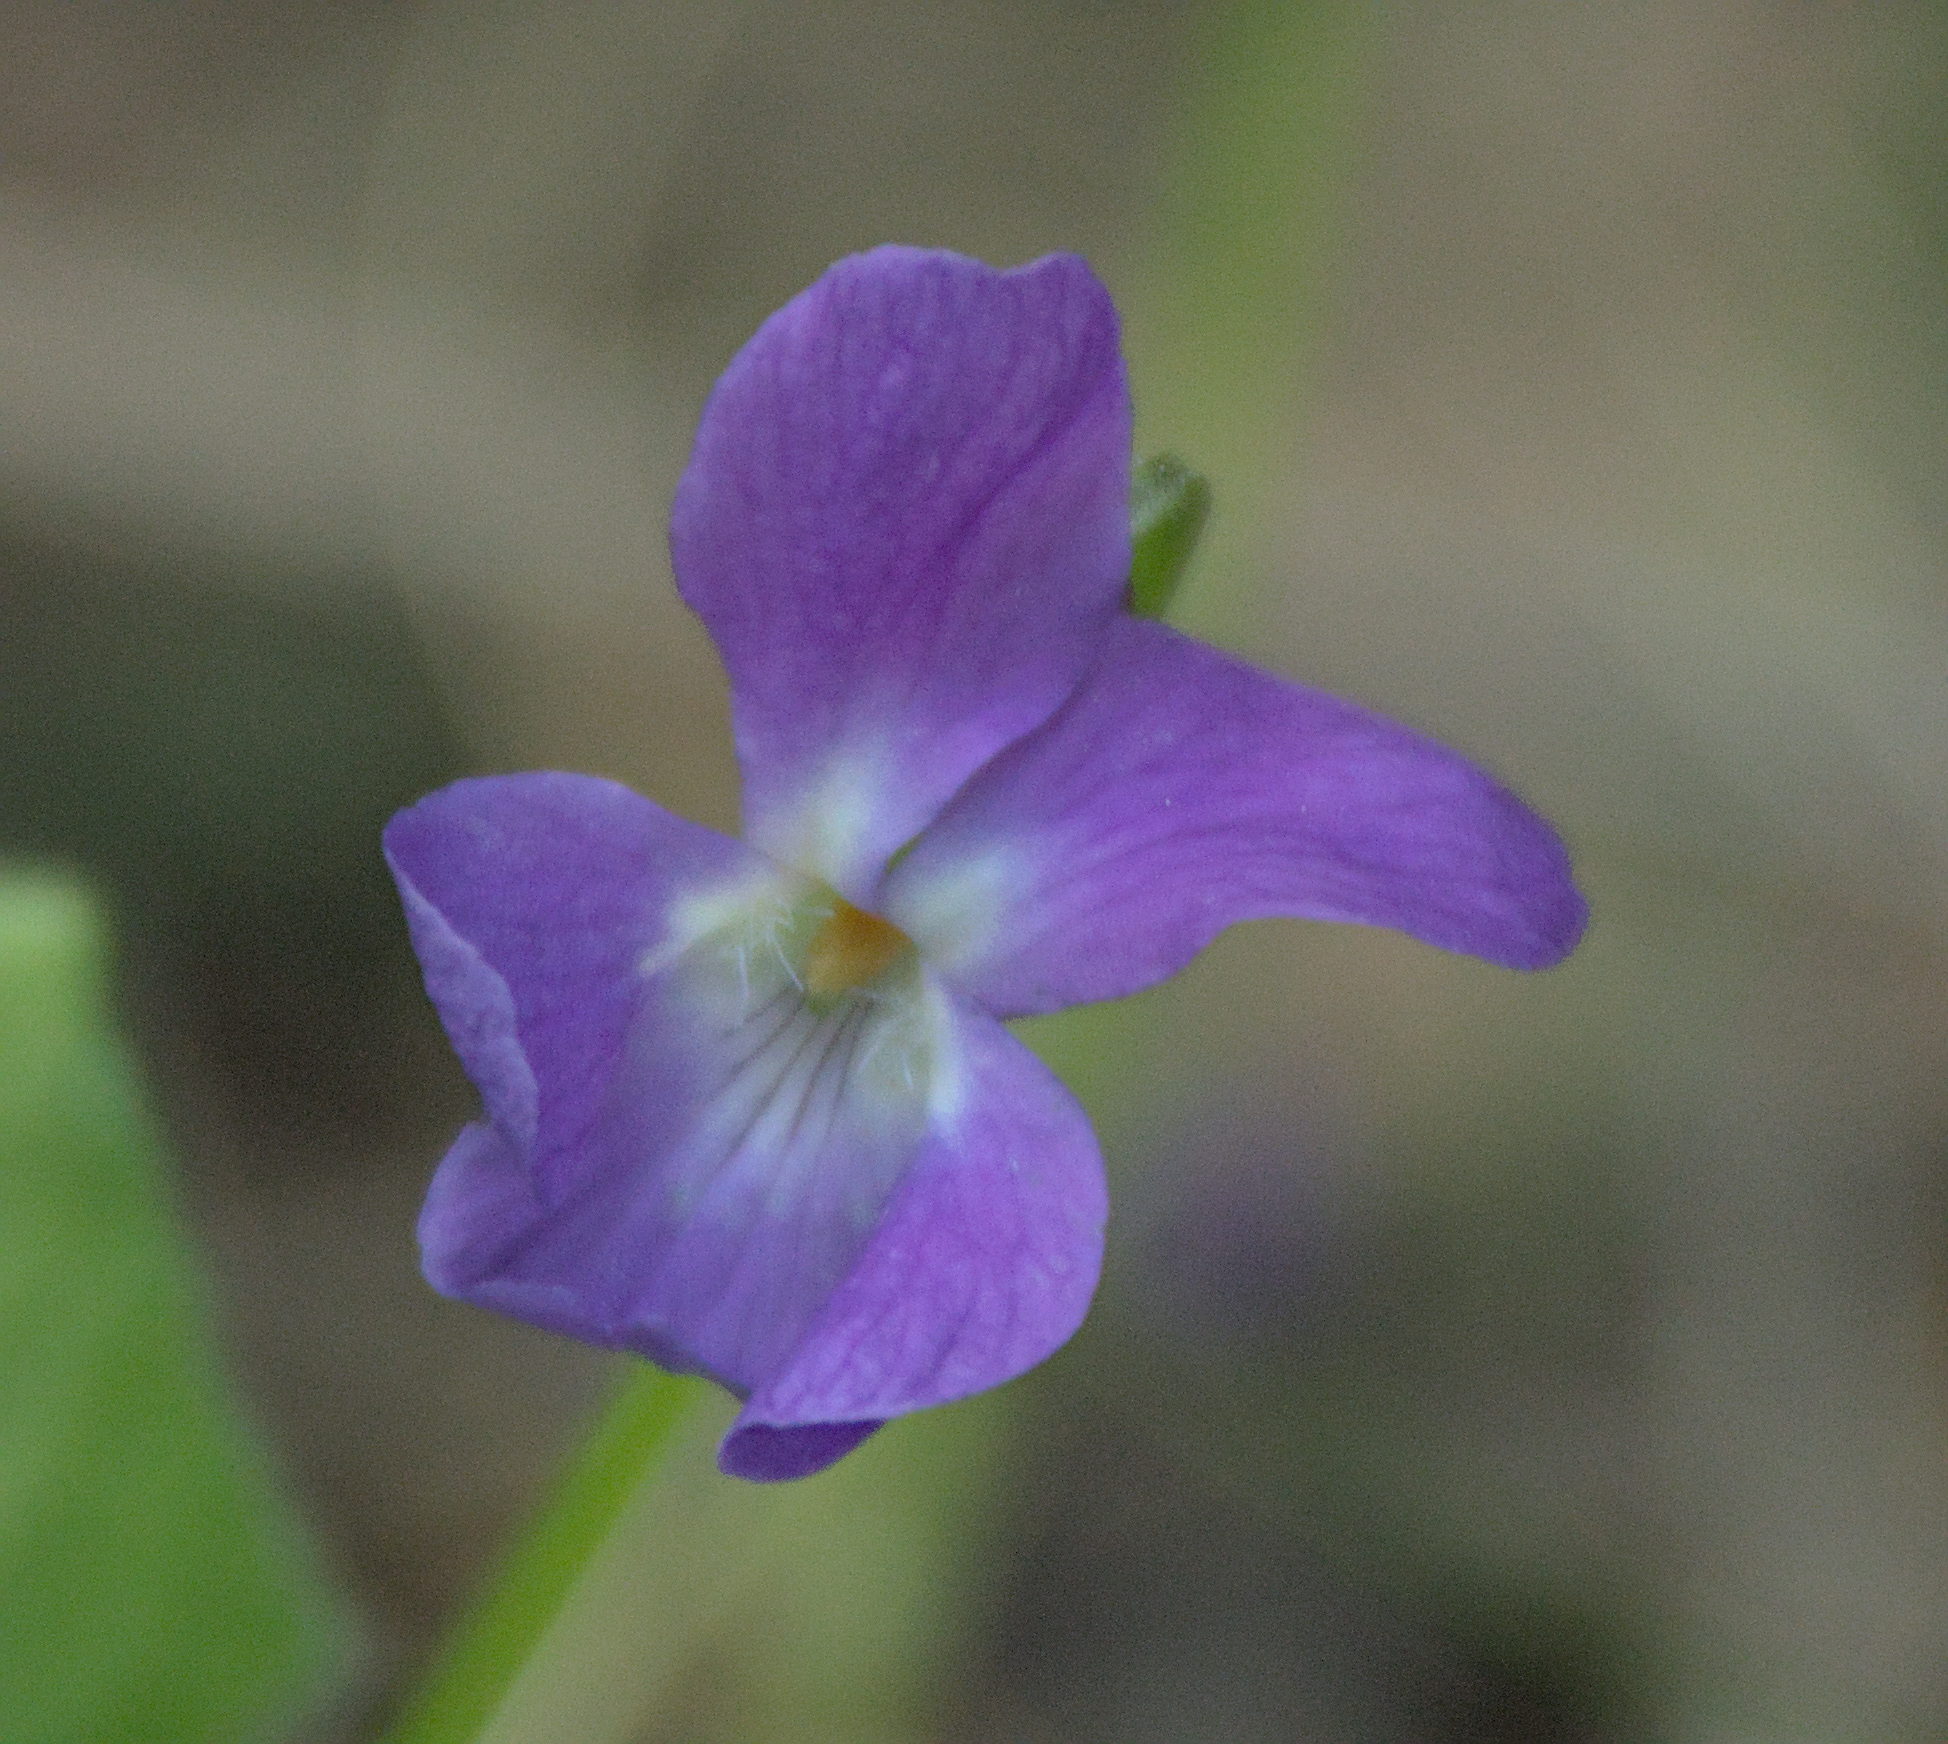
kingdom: Plantae
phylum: Tracheophyta
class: Magnoliopsida
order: Malpighiales
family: Violaceae
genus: Viola
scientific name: Viola hirta
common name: Hairy violet
